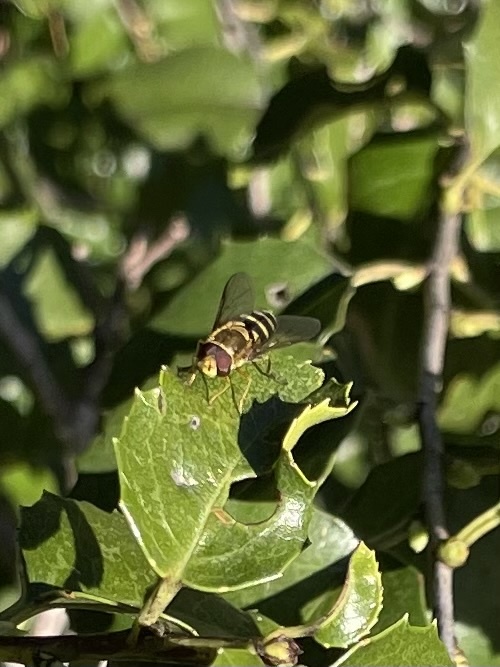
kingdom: Animalia
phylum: Arthropoda
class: Insecta
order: Diptera
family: Syrphidae
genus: Syrphus
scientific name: Syrphus opinator
